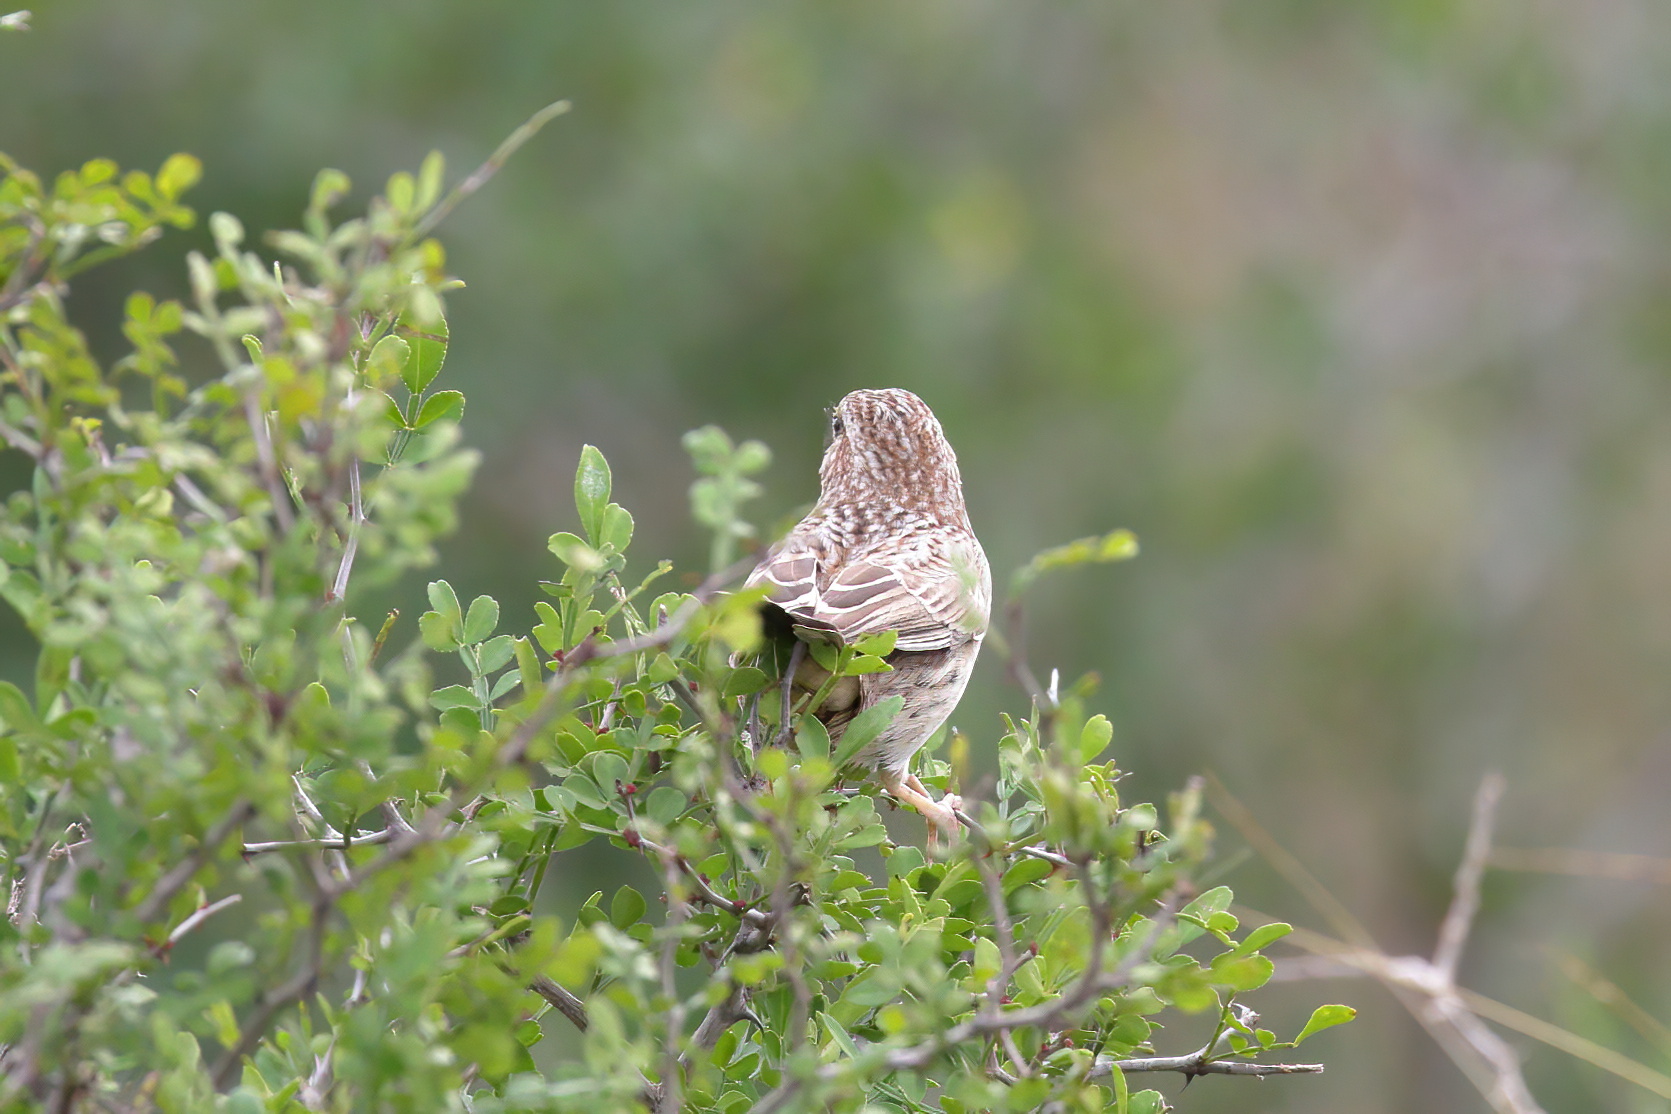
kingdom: Animalia
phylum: Chordata
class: Aves
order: Passeriformes
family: Passerellidae
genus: Peucaea
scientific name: Peucaea cassinii
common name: Cassin's sparrow
